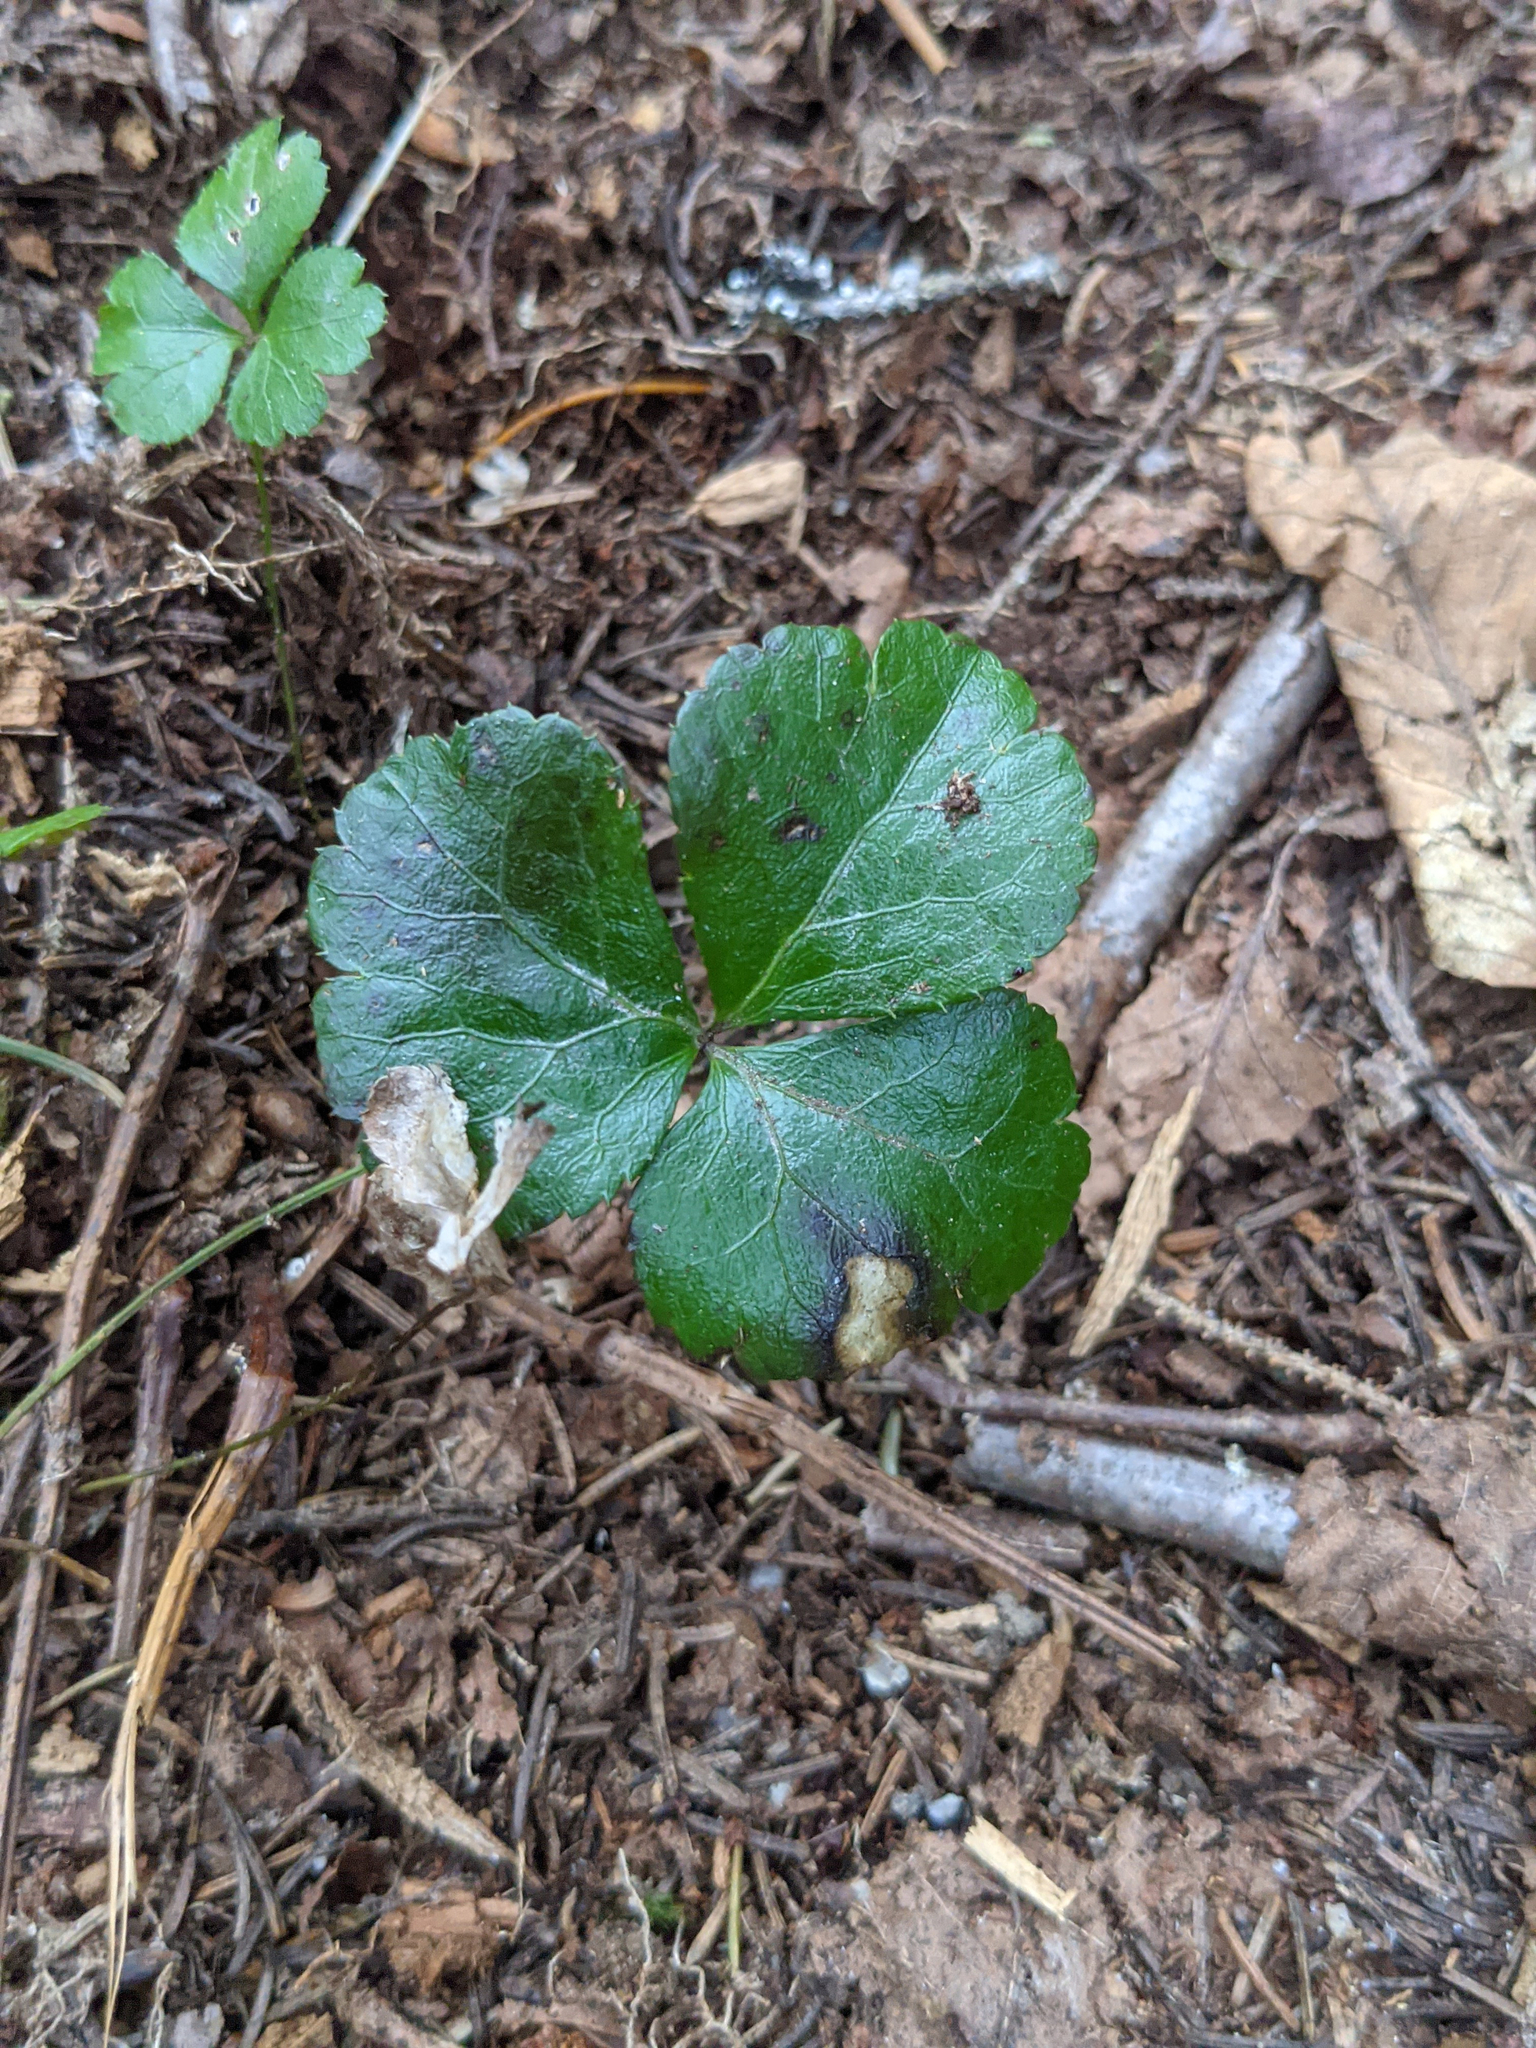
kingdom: Plantae
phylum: Tracheophyta
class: Magnoliopsida
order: Ranunculales
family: Ranunculaceae
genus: Coptis
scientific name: Coptis trifolia
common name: Canker-root
